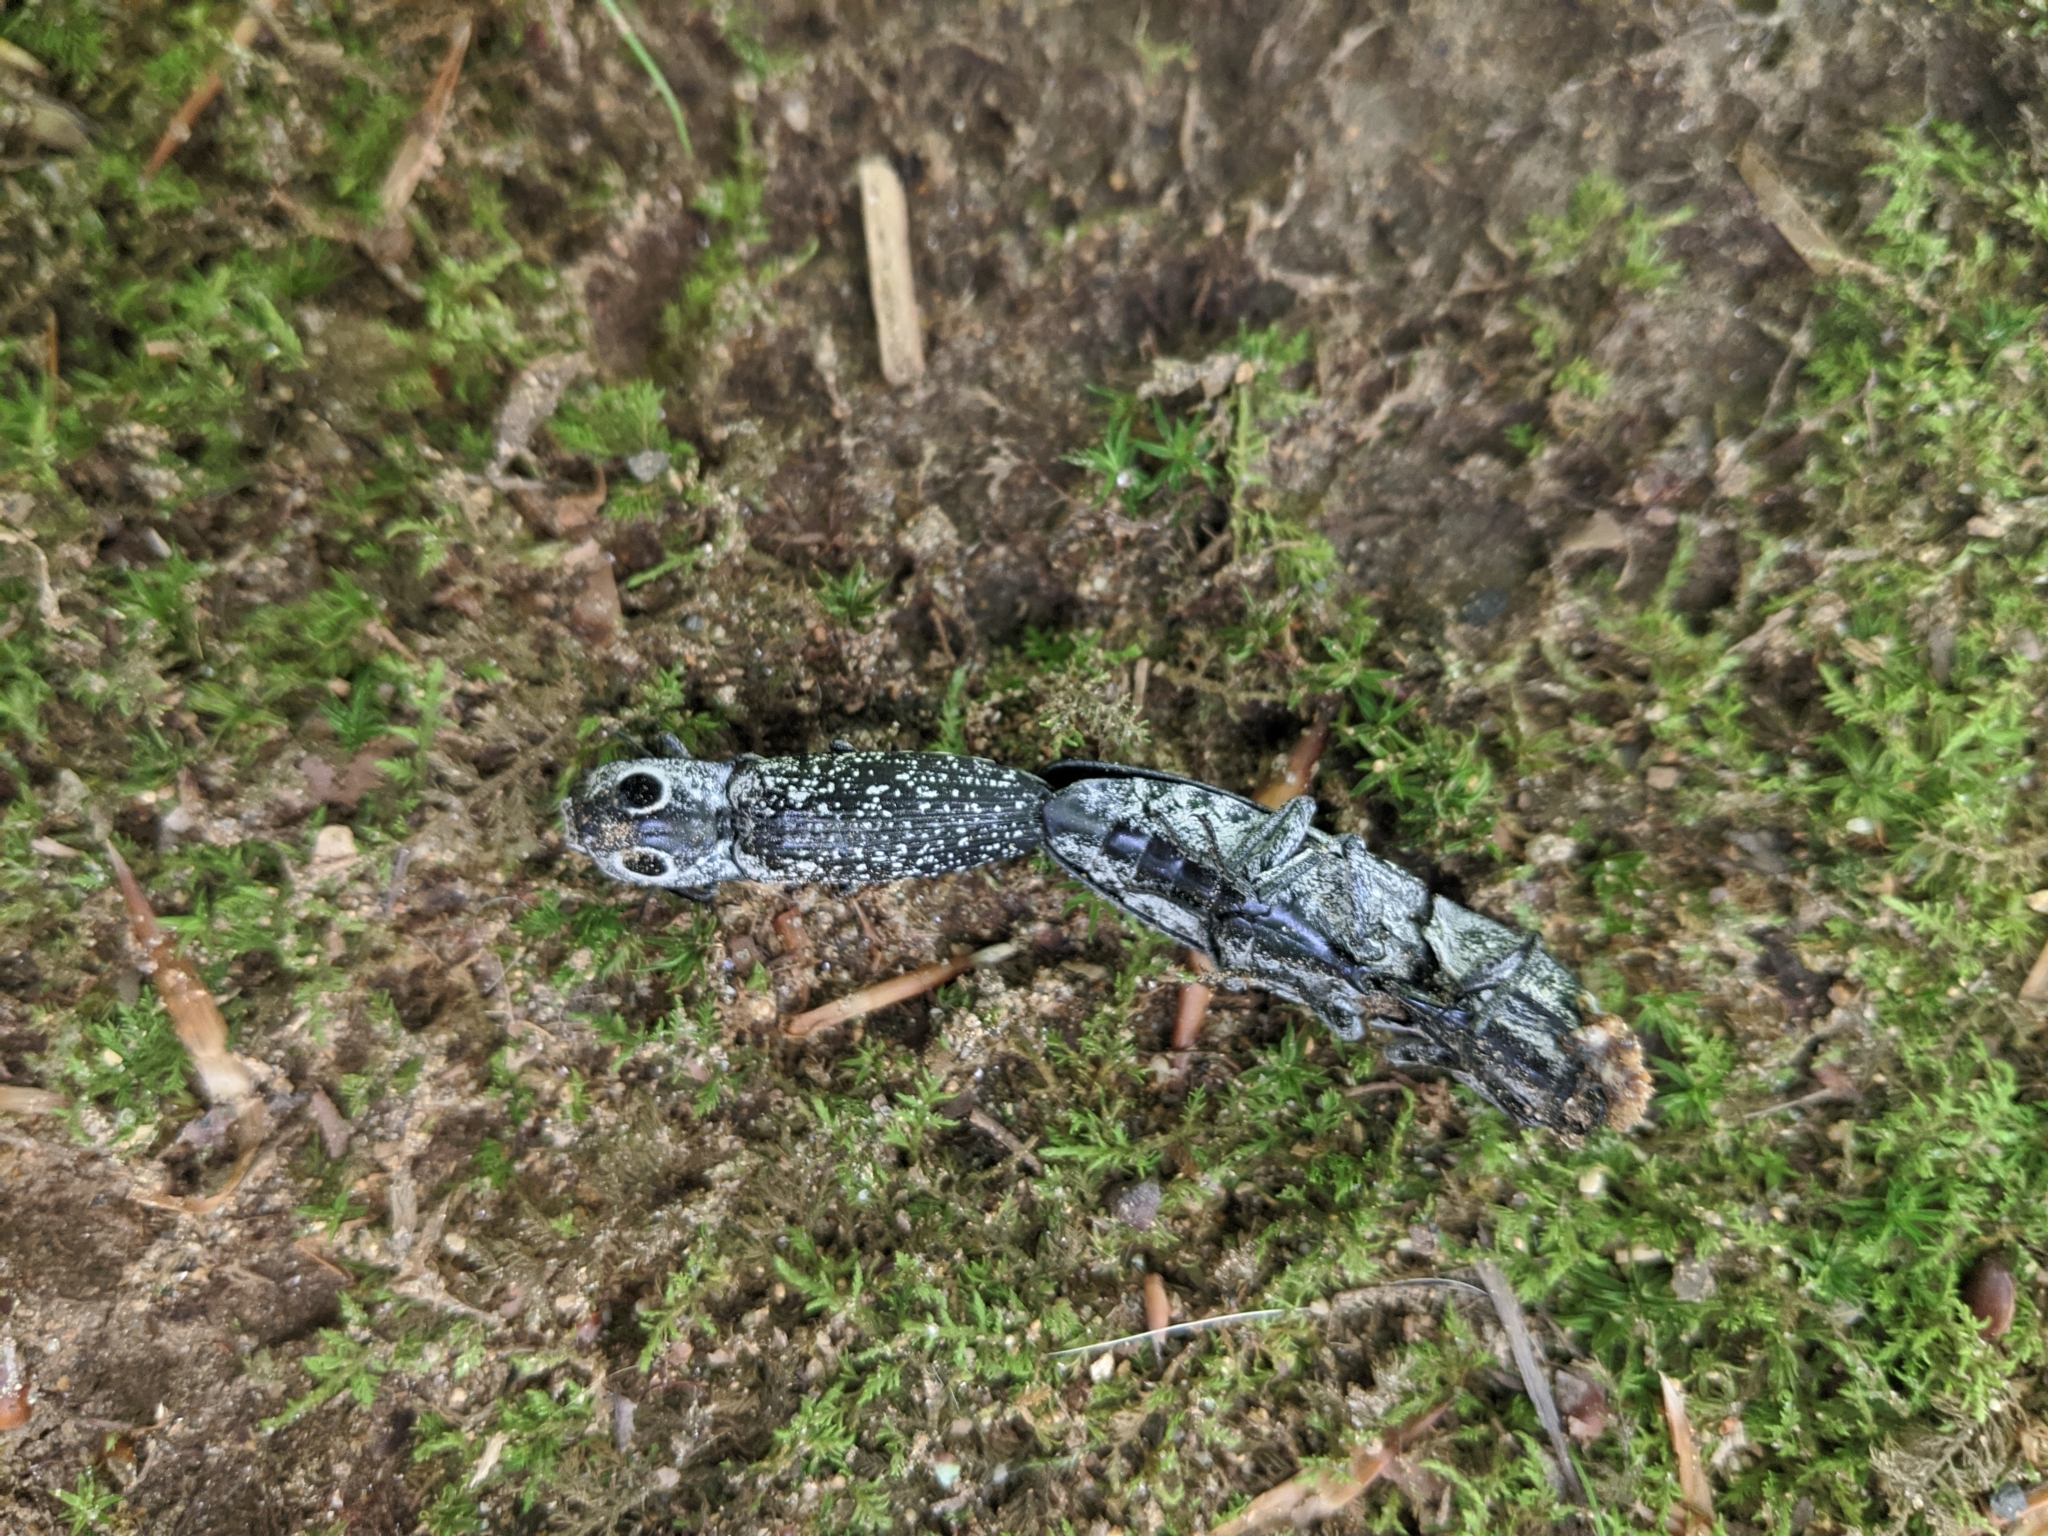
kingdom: Animalia
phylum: Arthropoda
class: Insecta
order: Coleoptera
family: Elateridae
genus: Alaus
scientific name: Alaus oculatus
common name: Eastern eyed click beetle
